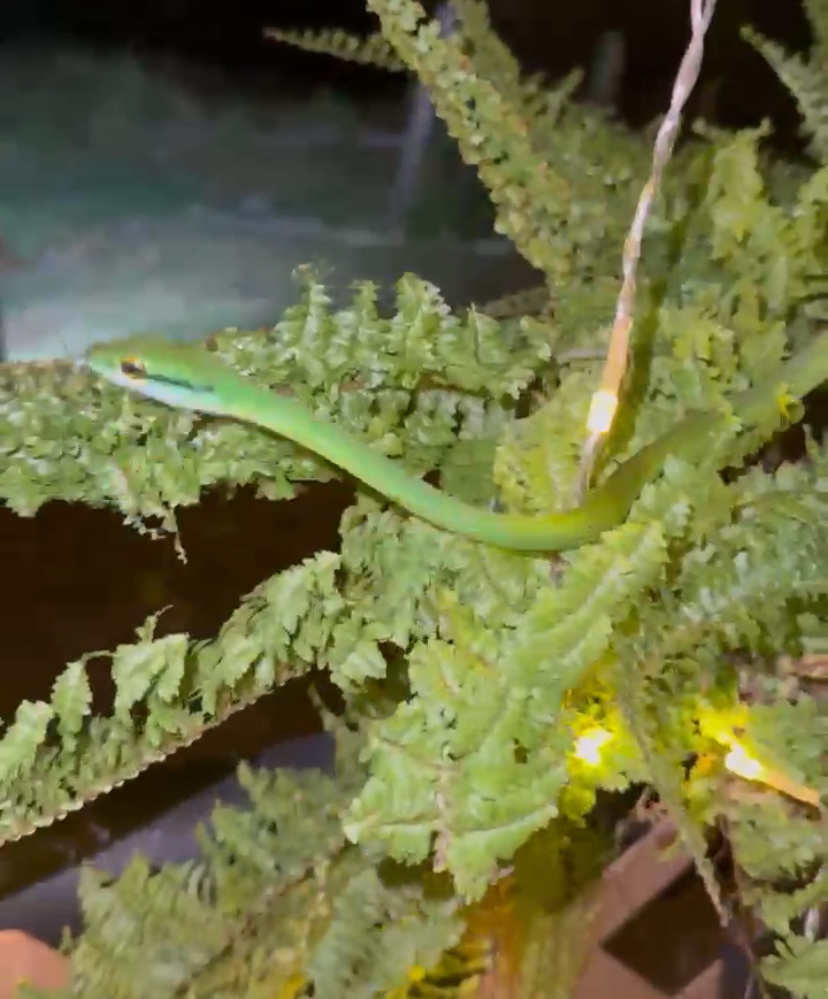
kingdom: Animalia
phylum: Chordata
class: Squamata
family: Colubridae
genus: Leptophis
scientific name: Leptophis ahaetulla
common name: Parrot snake
